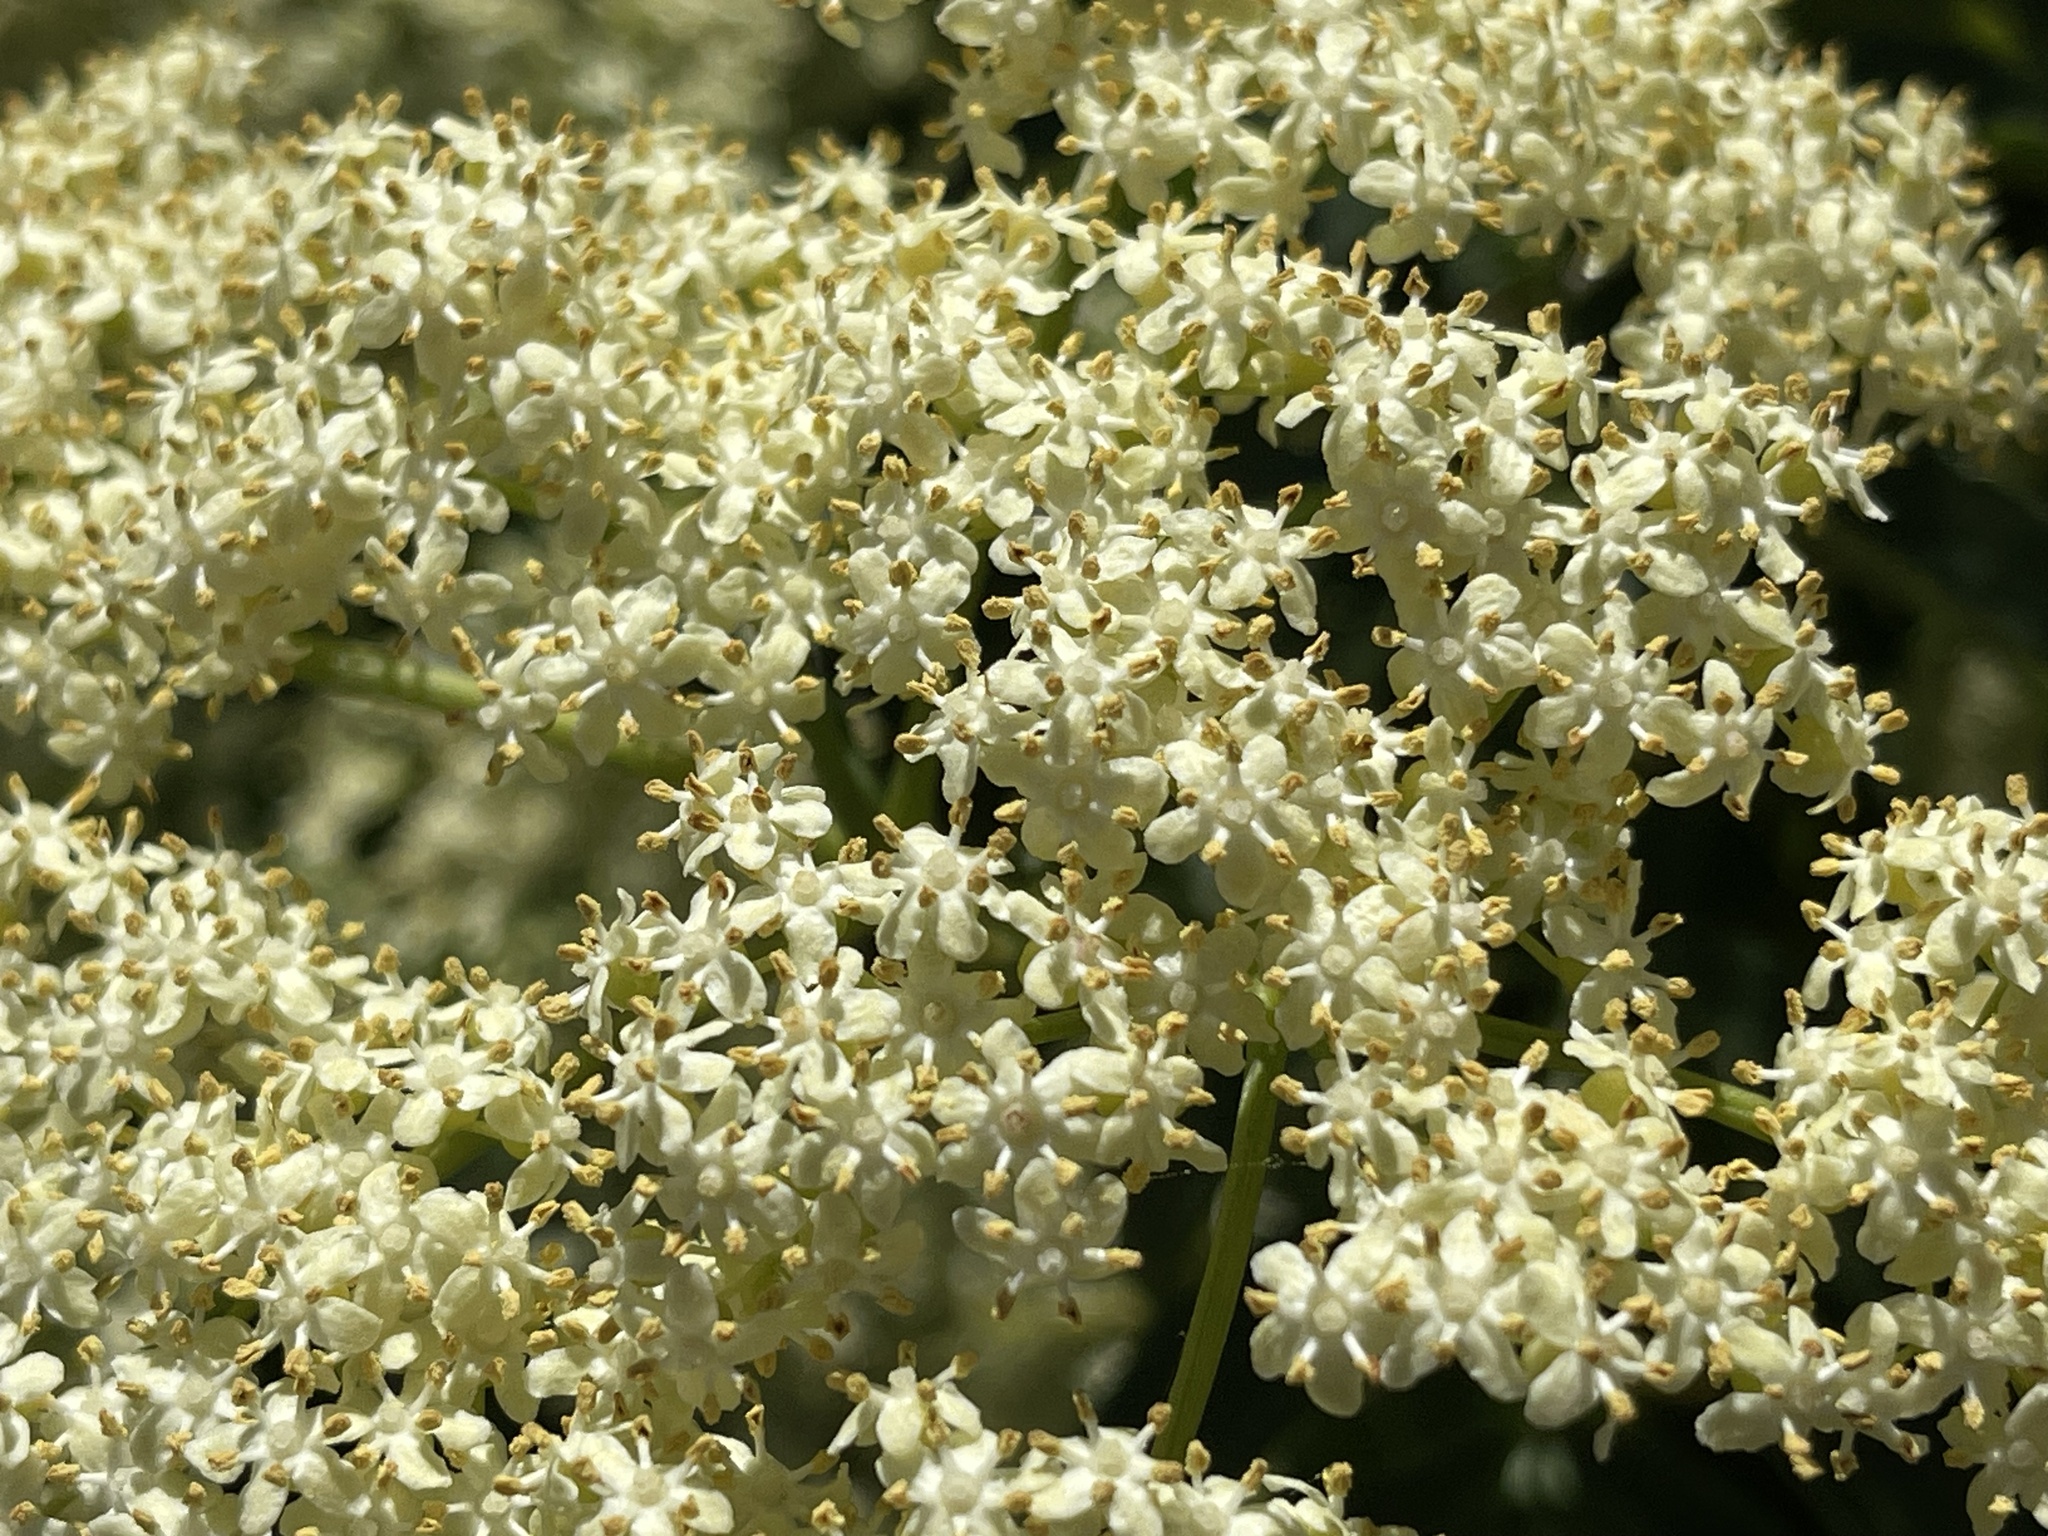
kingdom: Plantae
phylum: Tracheophyta
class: Magnoliopsida
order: Dipsacales
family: Viburnaceae
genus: Sambucus
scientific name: Sambucus cerulea
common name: Blue elder
